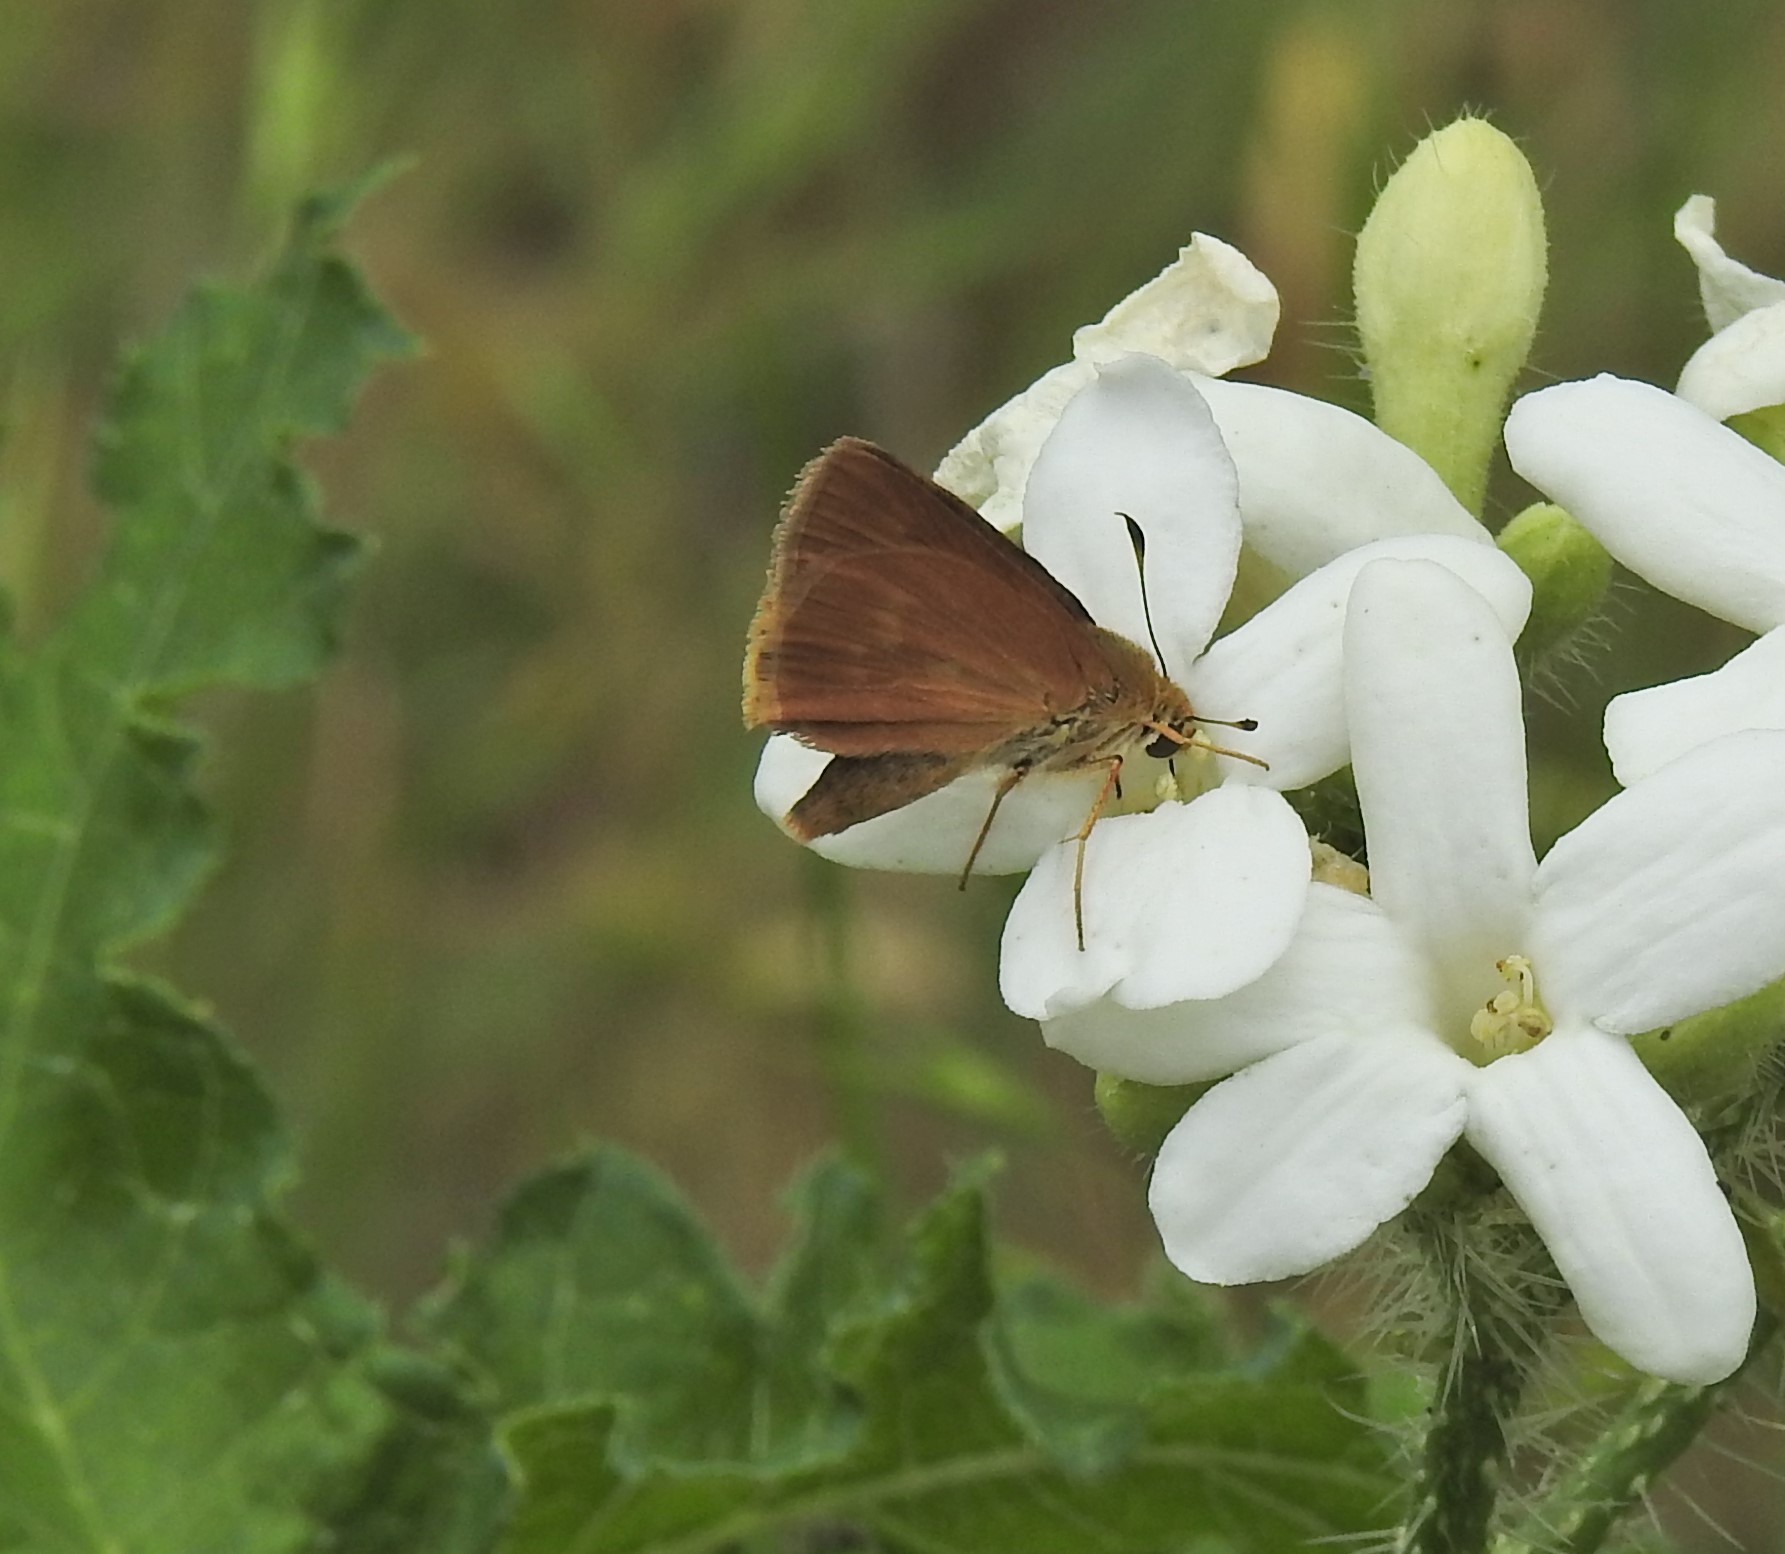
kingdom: Animalia
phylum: Arthropoda
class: Insecta
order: Lepidoptera
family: Hesperiidae
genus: Polites
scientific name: Polites otho
